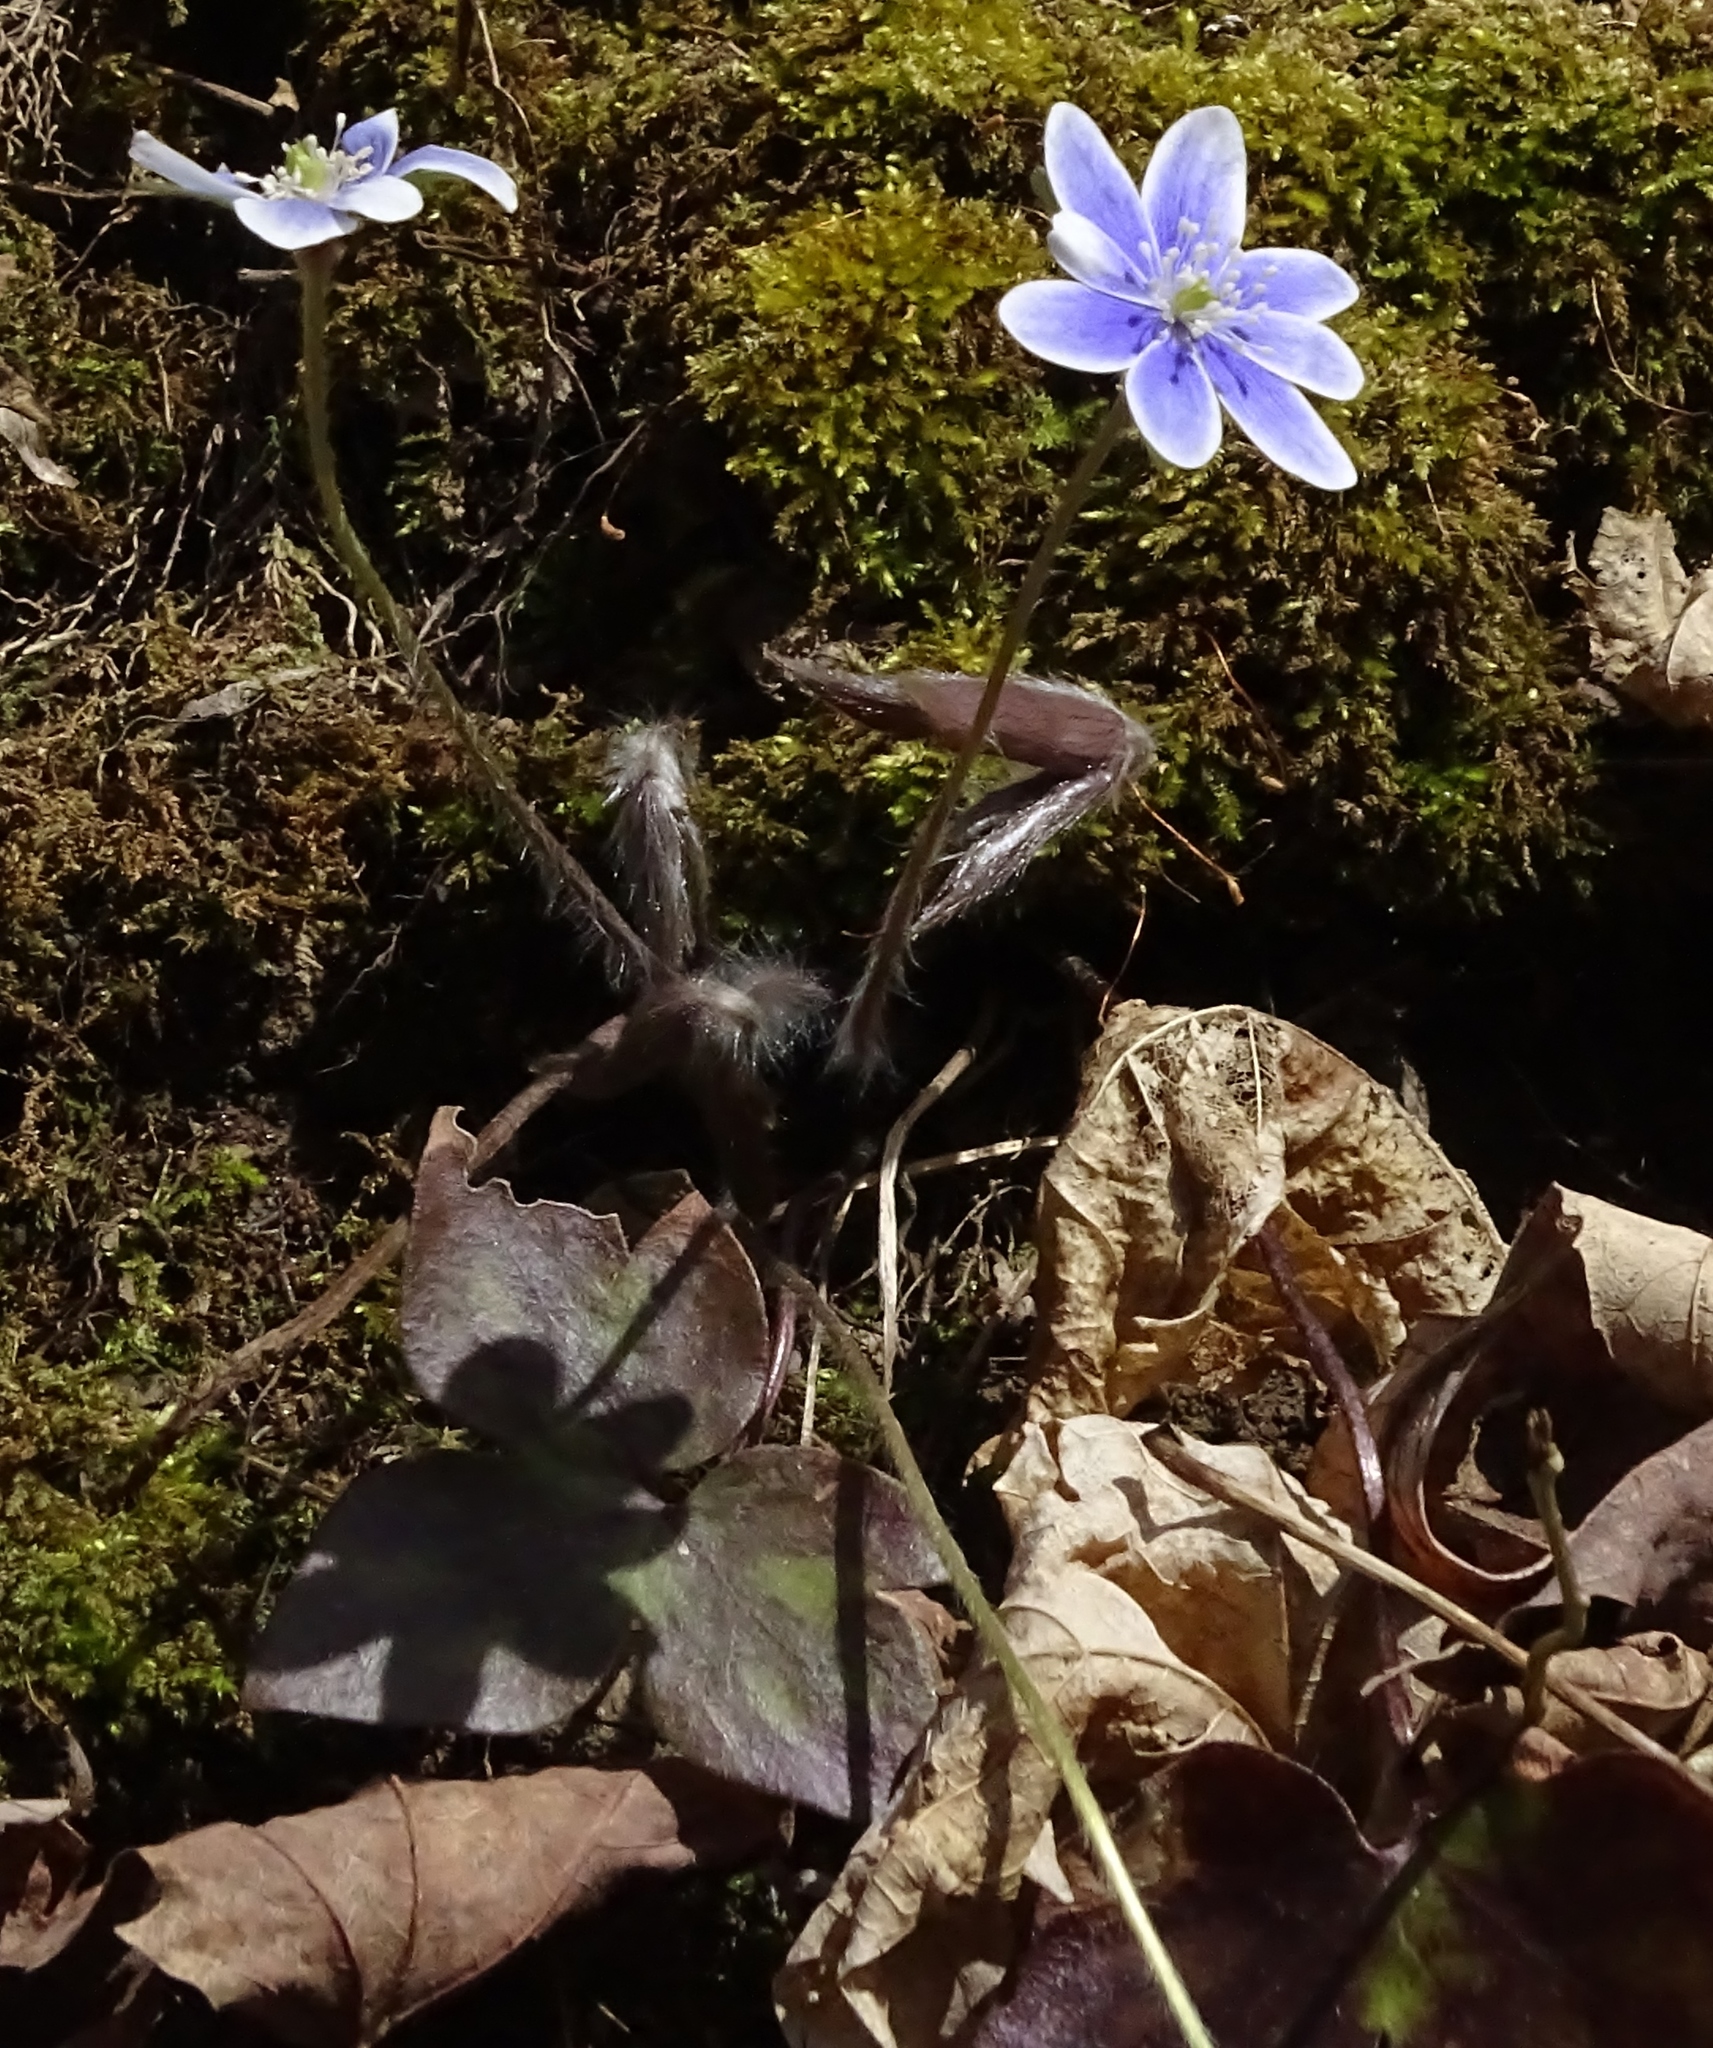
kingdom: Plantae
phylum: Tracheophyta
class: Magnoliopsida
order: Ranunculales
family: Ranunculaceae
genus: Hepatica
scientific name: Hepatica acutiloba
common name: Sharp-lobed hepatica
